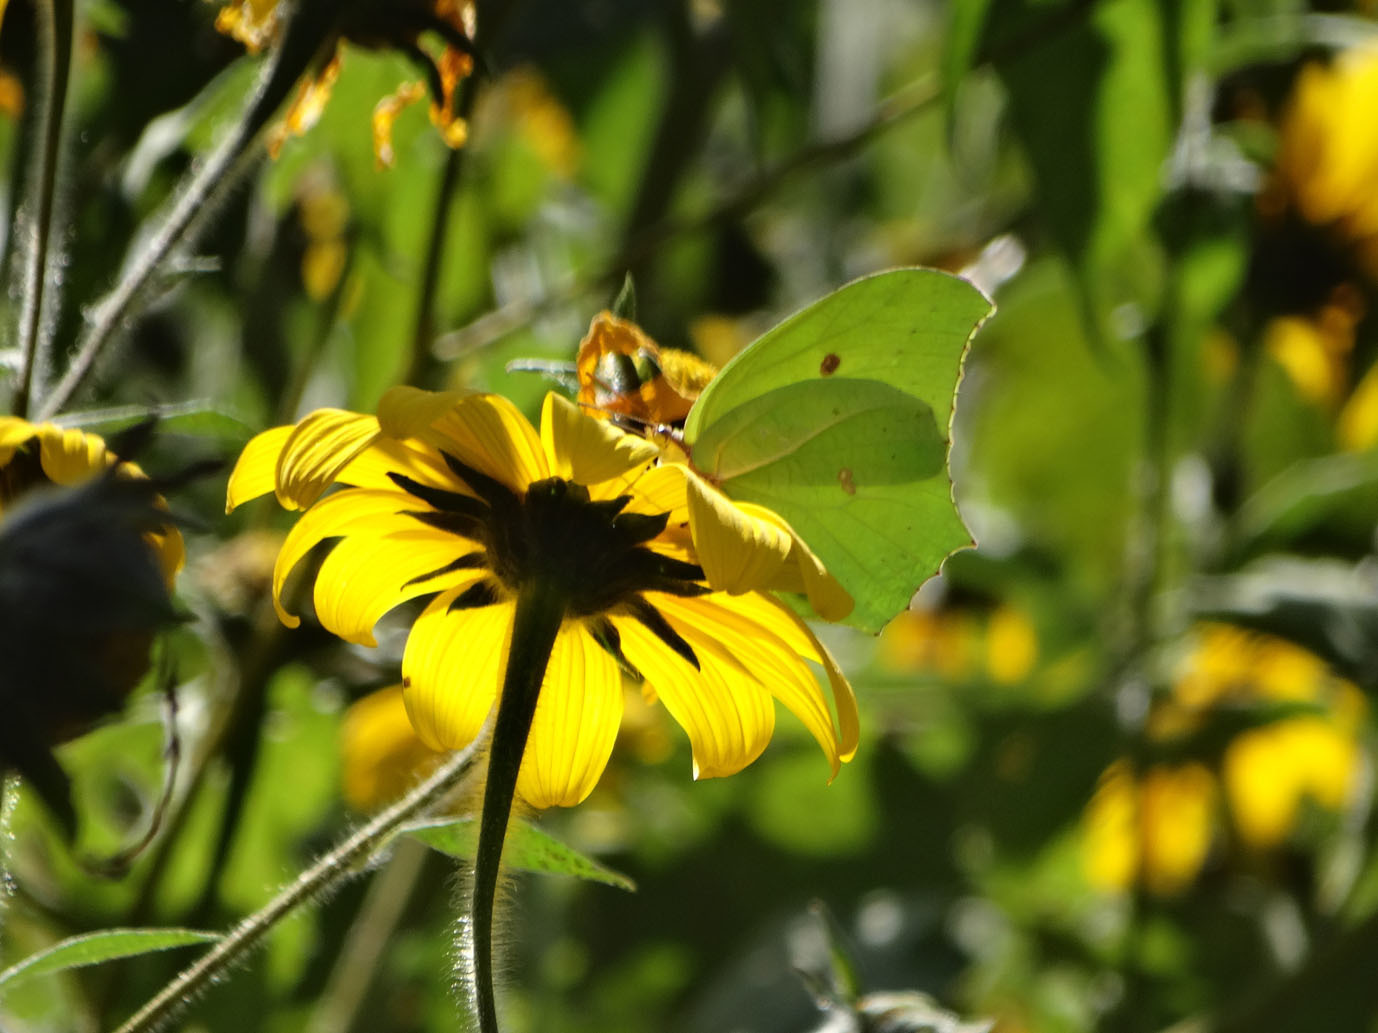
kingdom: Animalia
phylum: Arthropoda
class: Insecta
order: Lepidoptera
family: Pieridae
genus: Anteos
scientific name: Anteos maerula
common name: Angled sulphur
